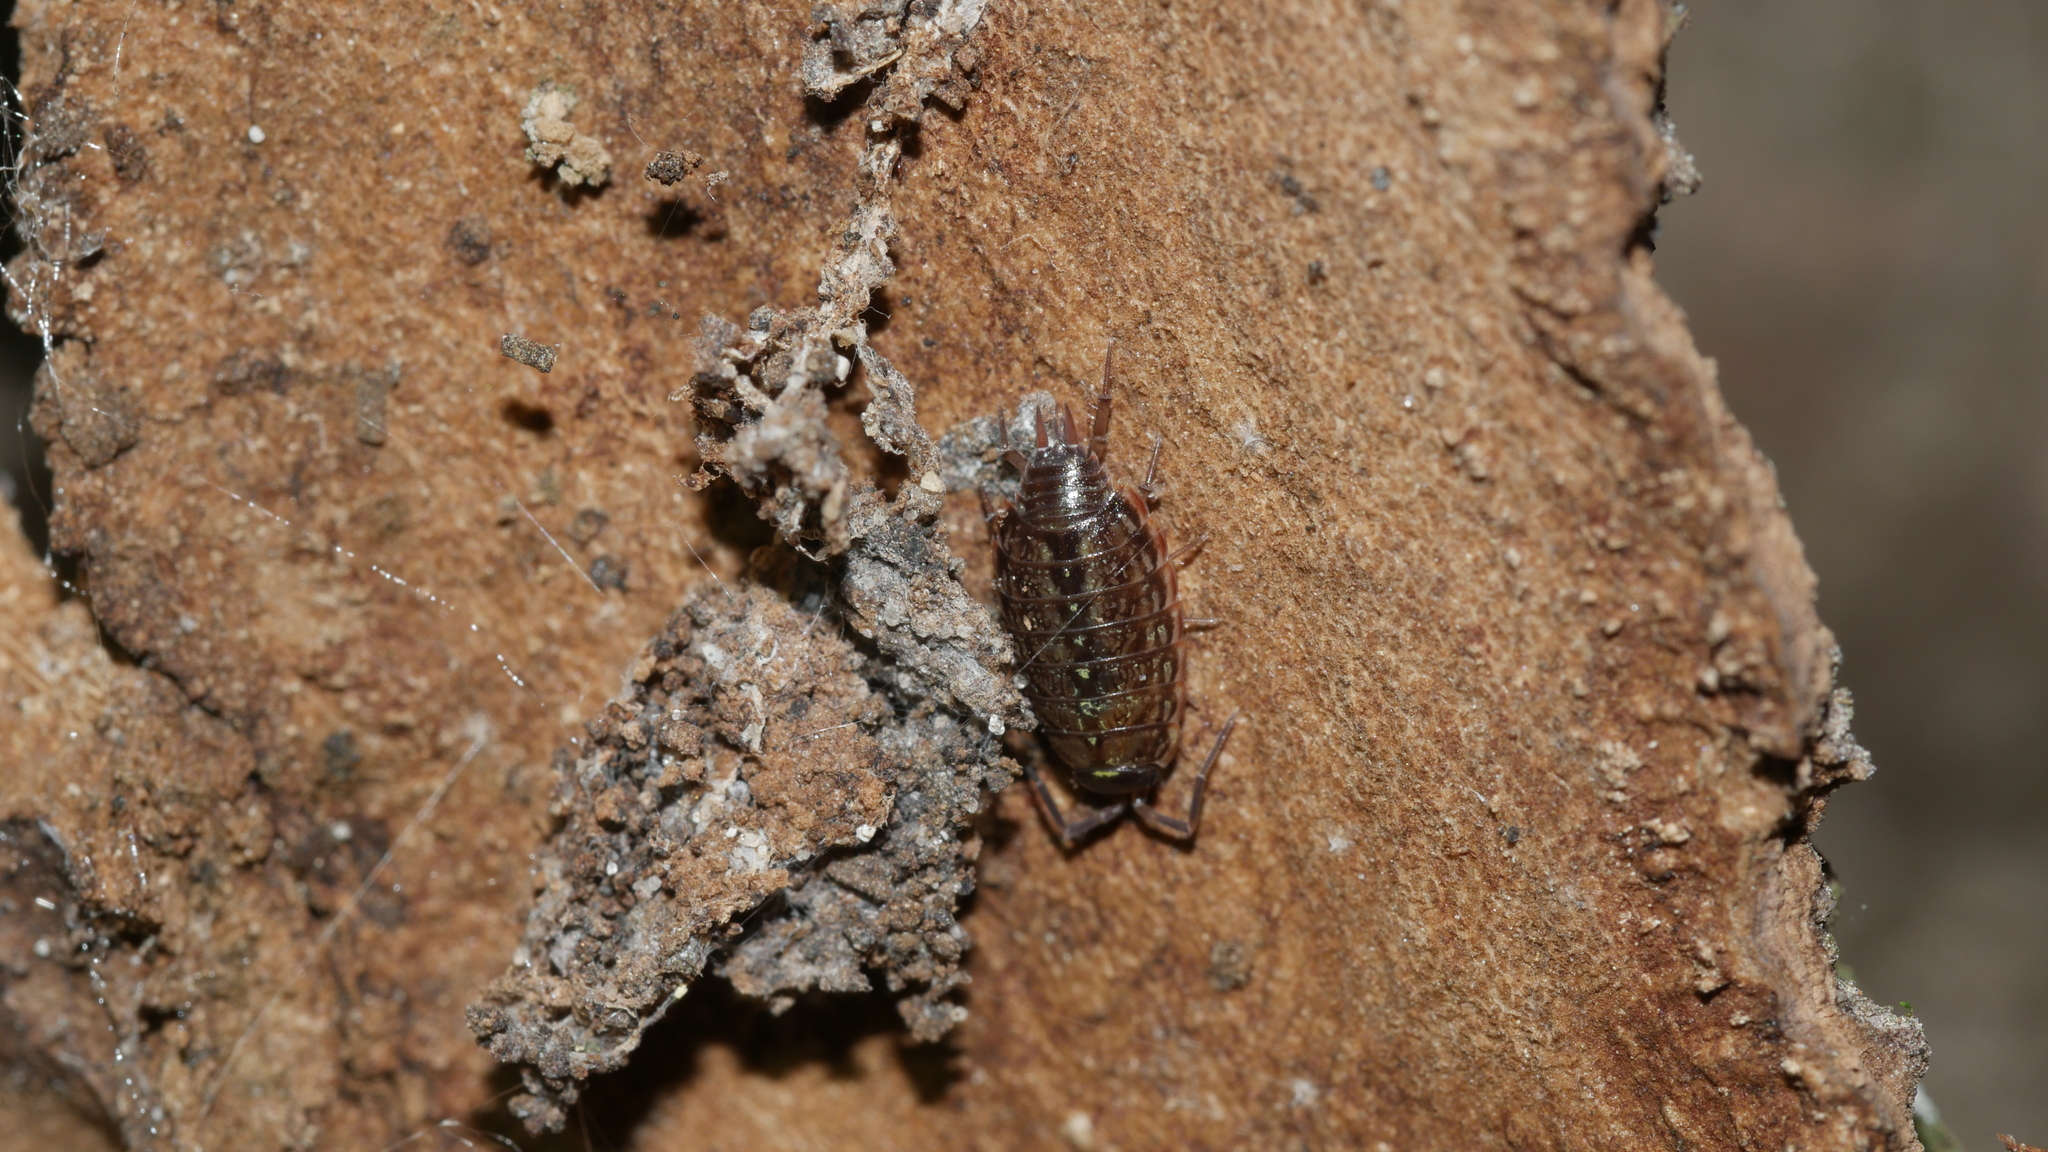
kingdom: Animalia
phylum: Arthropoda
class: Malacostraca
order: Isopoda
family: Philosciidae
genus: Philoscia
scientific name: Philoscia muscorum
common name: Common striped woodlouse
